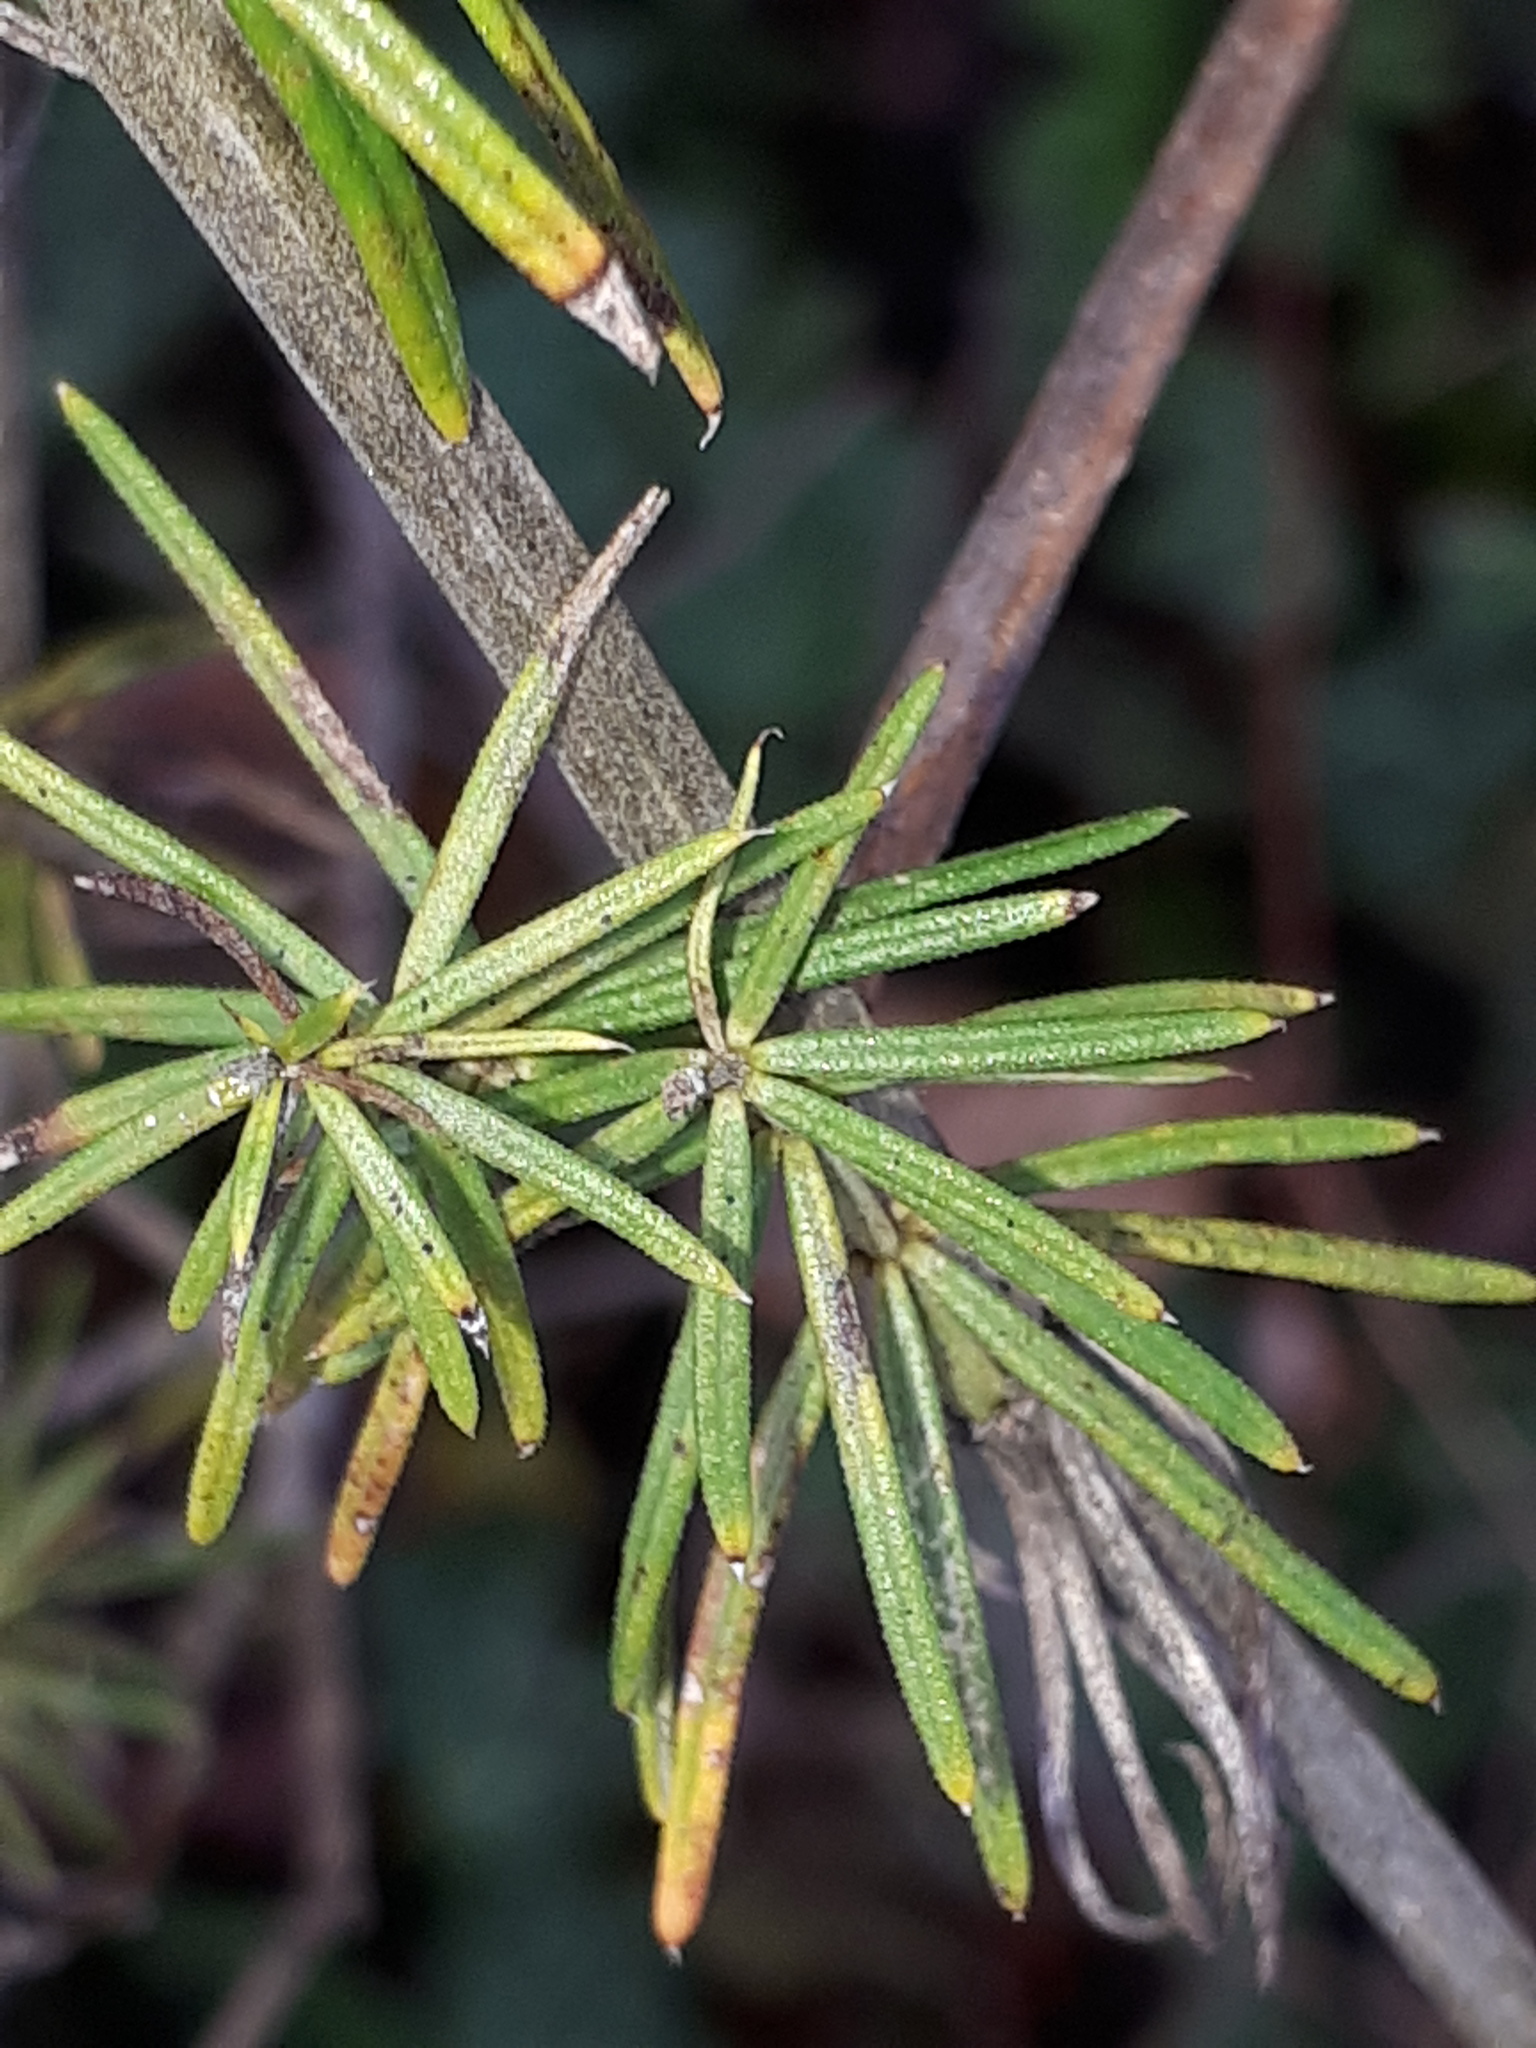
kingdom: Plantae
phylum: Tracheophyta
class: Magnoliopsida
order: Gentianales
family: Rubiaceae
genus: Galium
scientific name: Galium verum
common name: Lady's bedstraw
